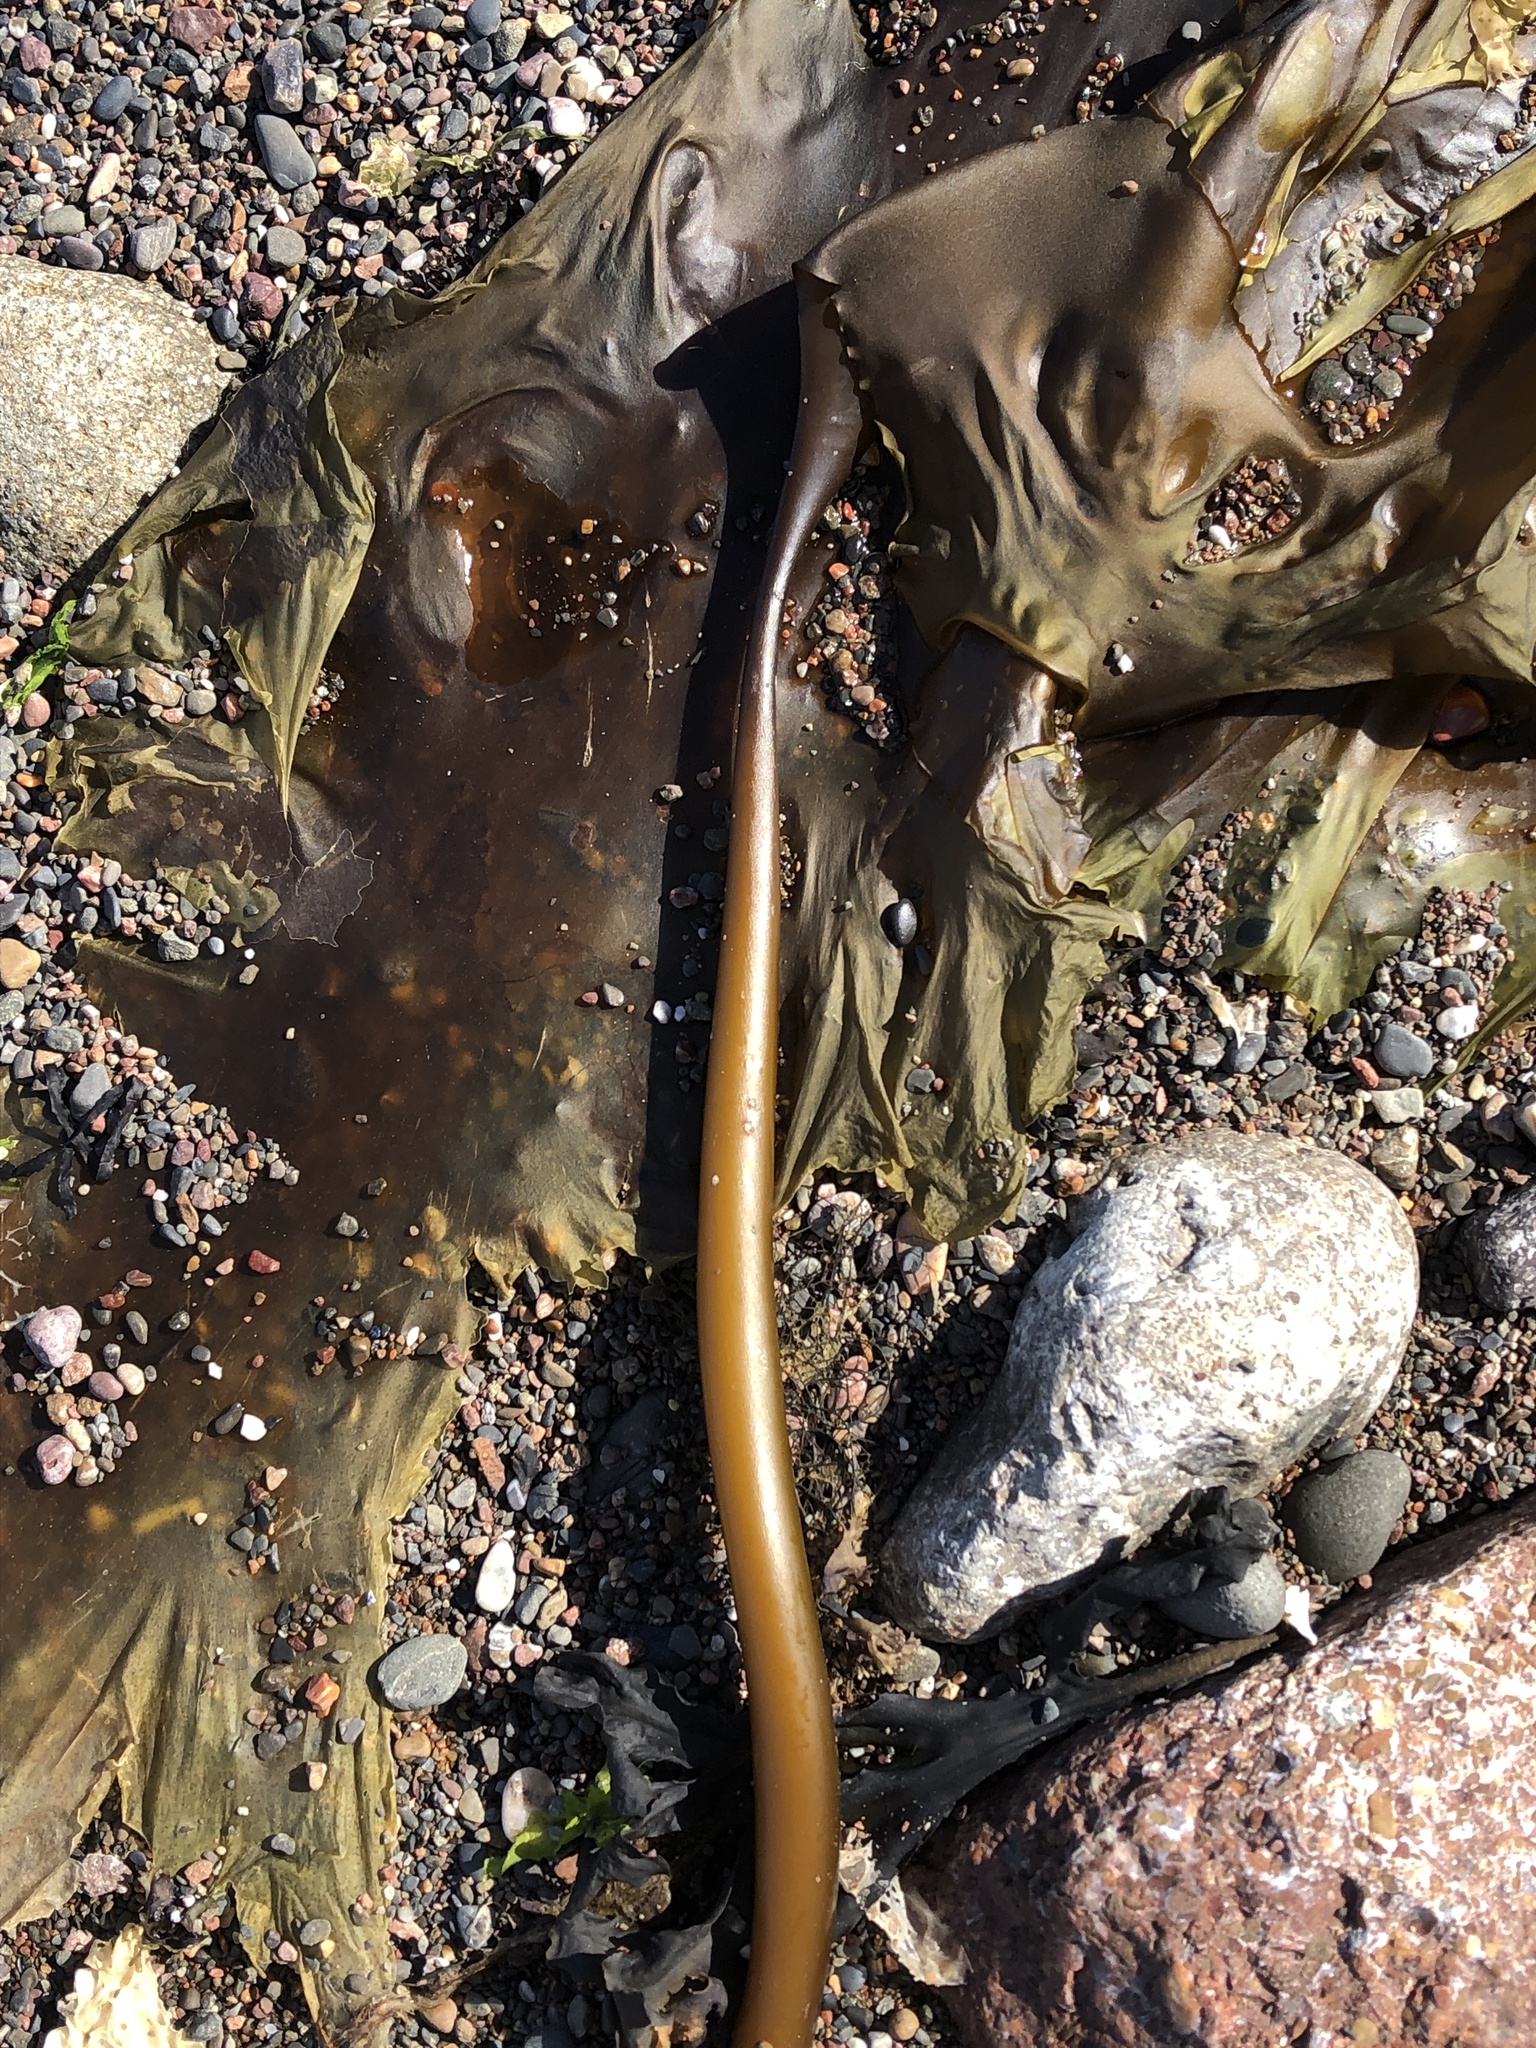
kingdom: Chromista
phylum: Ochrophyta
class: Phaeophyceae
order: Laminariales
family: Laminariaceae
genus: Saccharina
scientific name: Saccharina longicruris
